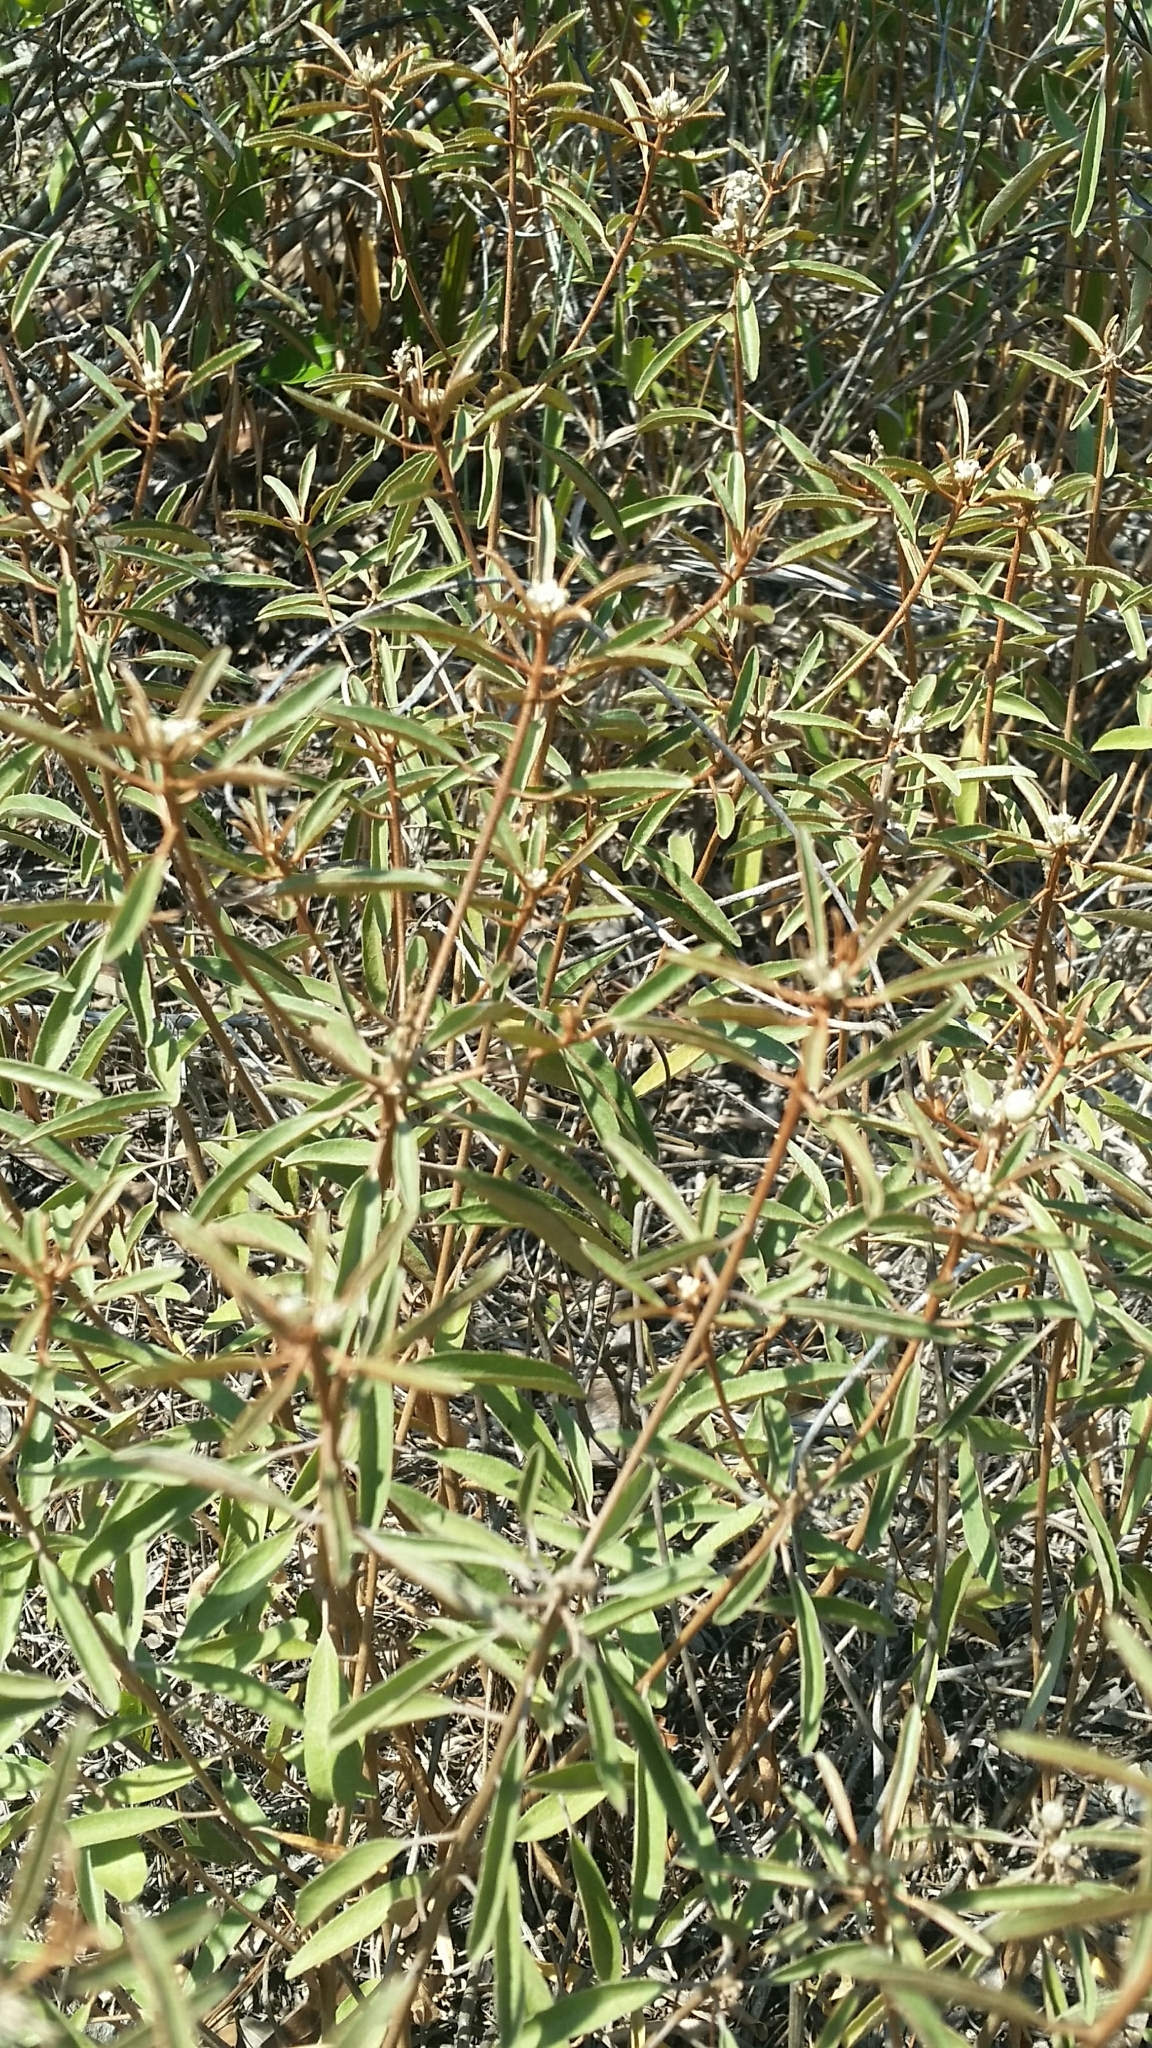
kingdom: Plantae
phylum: Tracheophyta
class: Magnoliopsida
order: Malpighiales
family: Euphorbiaceae
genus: Croton
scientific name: Croton argyranthemus
